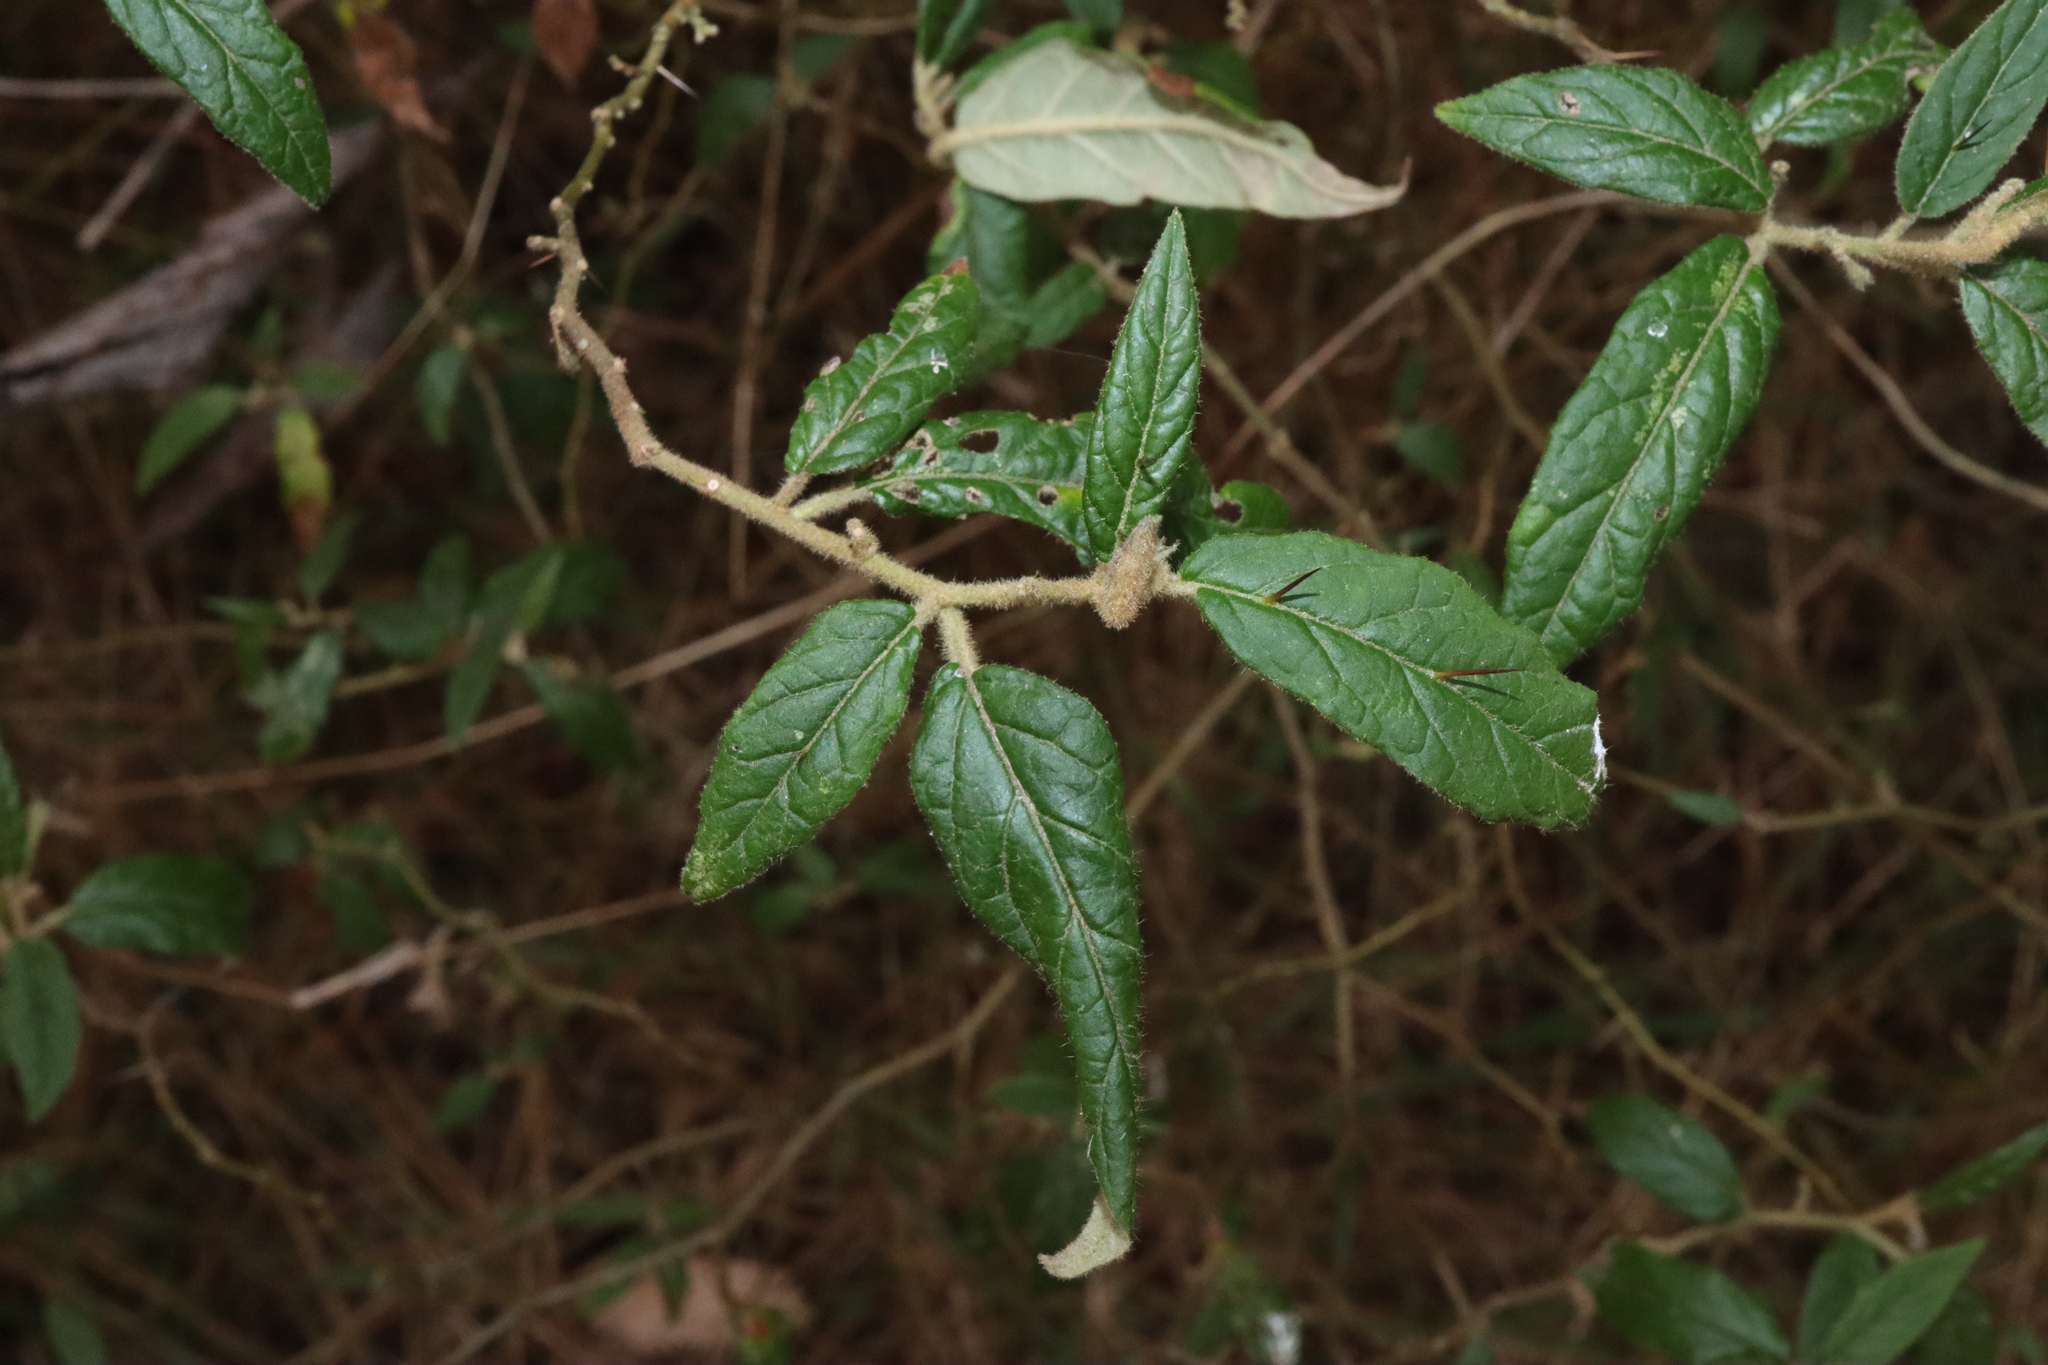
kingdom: Plantae
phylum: Tracheophyta
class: Magnoliopsida
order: Solanales
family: Solanaceae
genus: Solanum
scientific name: Solanum stelligerum
